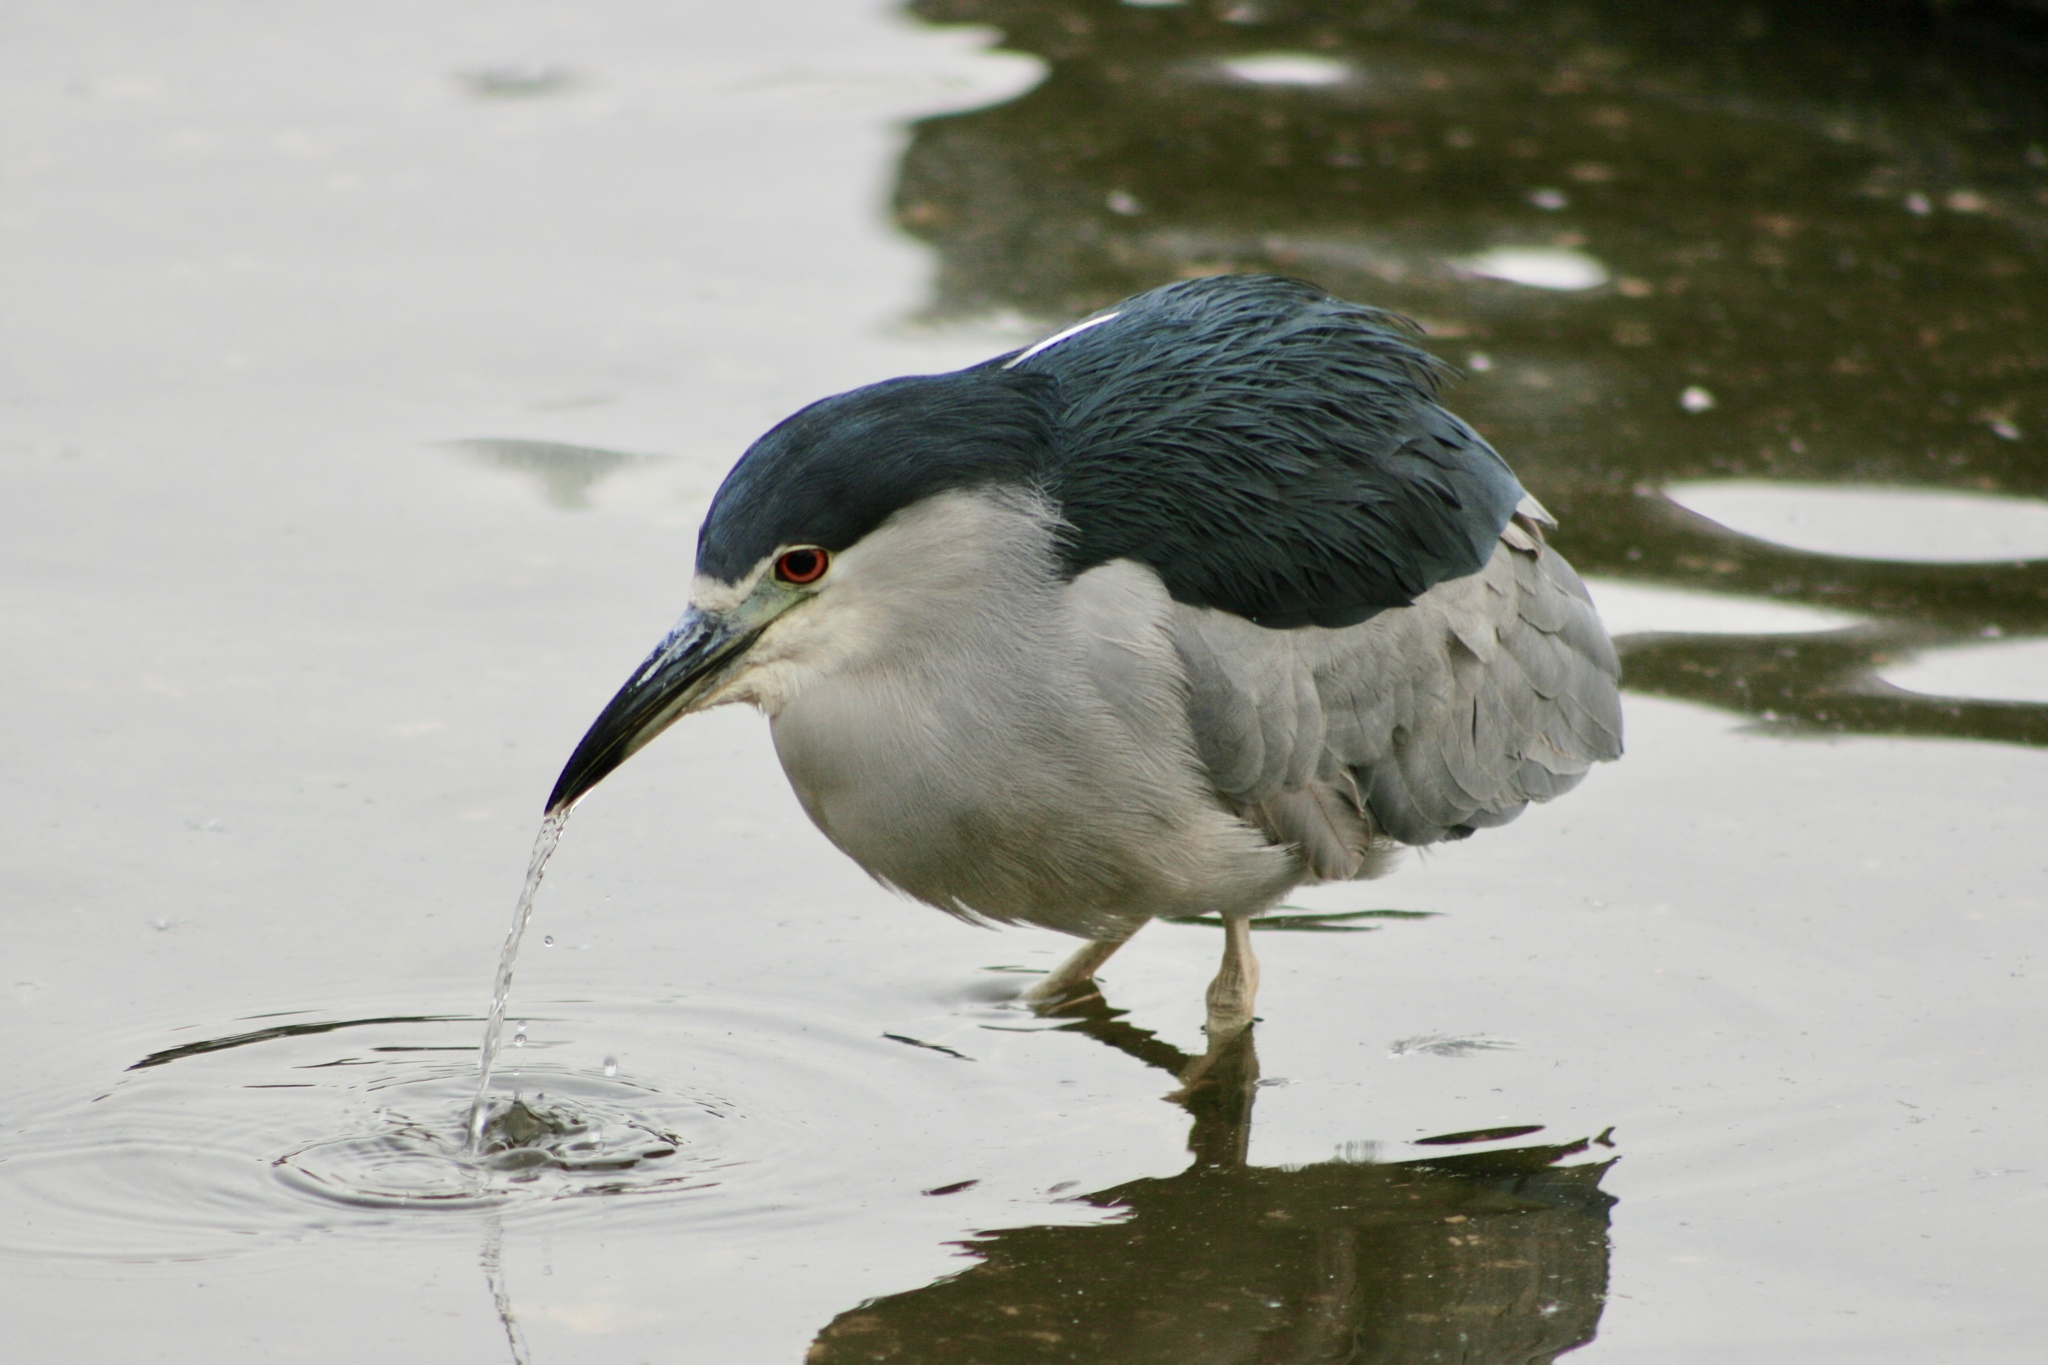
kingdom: Animalia
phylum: Chordata
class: Aves
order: Pelecaniformes
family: Ardeidae
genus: Nycticorax
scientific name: Nycticorax nycticorax
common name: Black-crowned night heron
